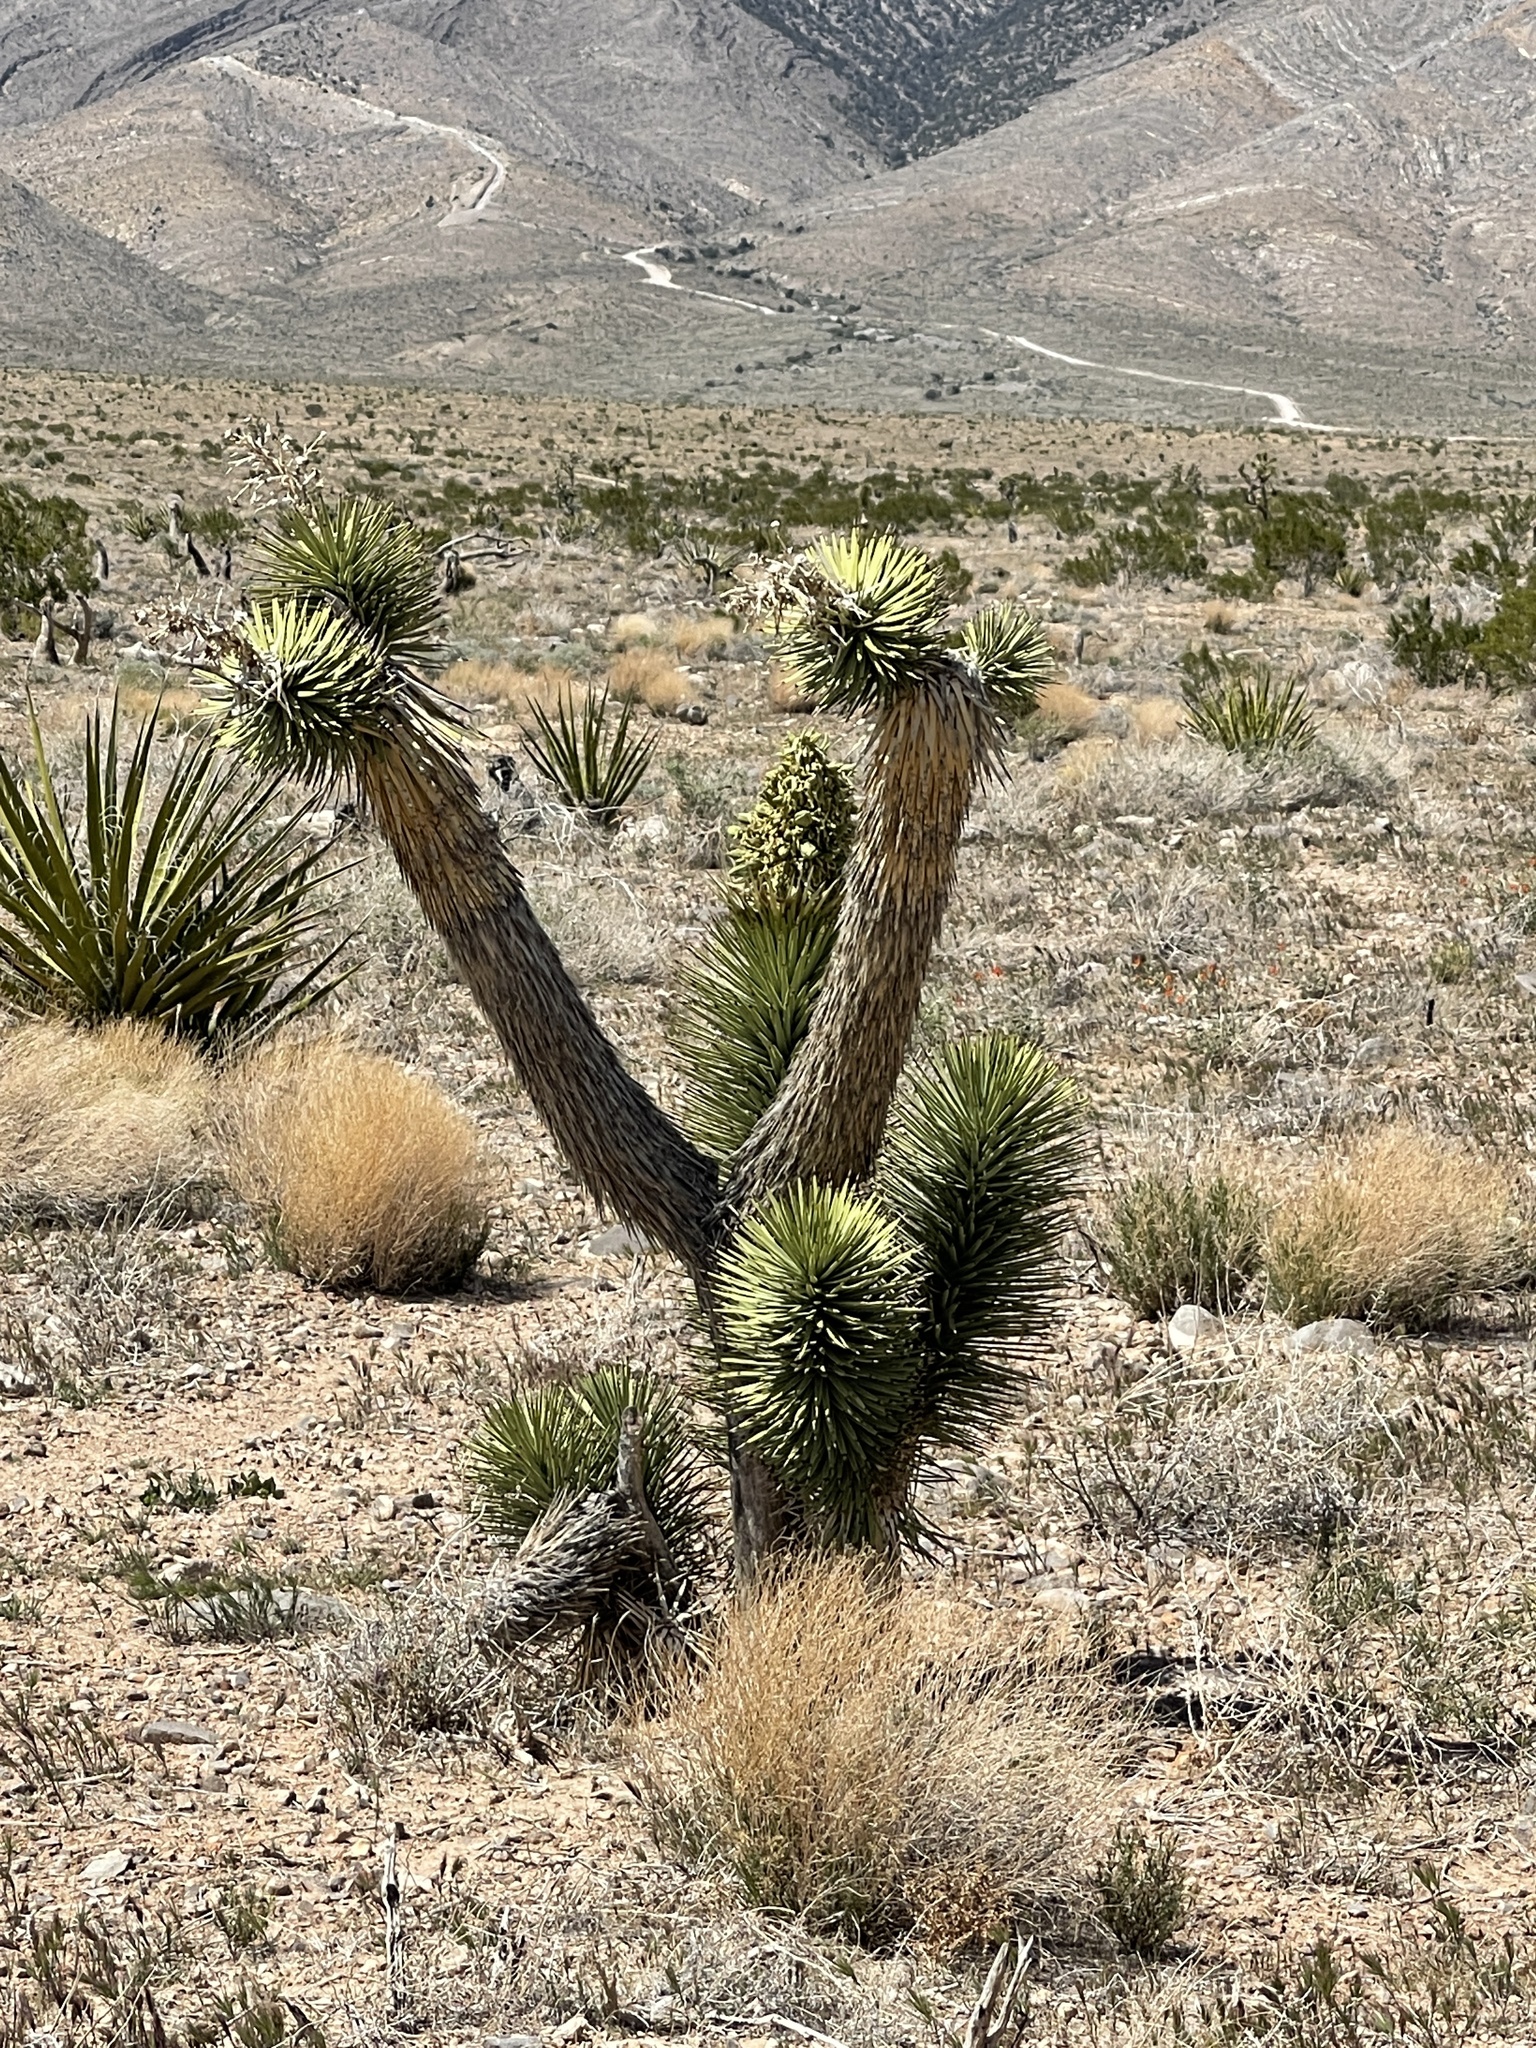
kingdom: Plantae
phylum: Tracheophyta
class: Liliopsida
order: Asparagales
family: Asparagaceae
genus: Yucca
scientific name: Yucca brevifolia
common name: Joshua tree
